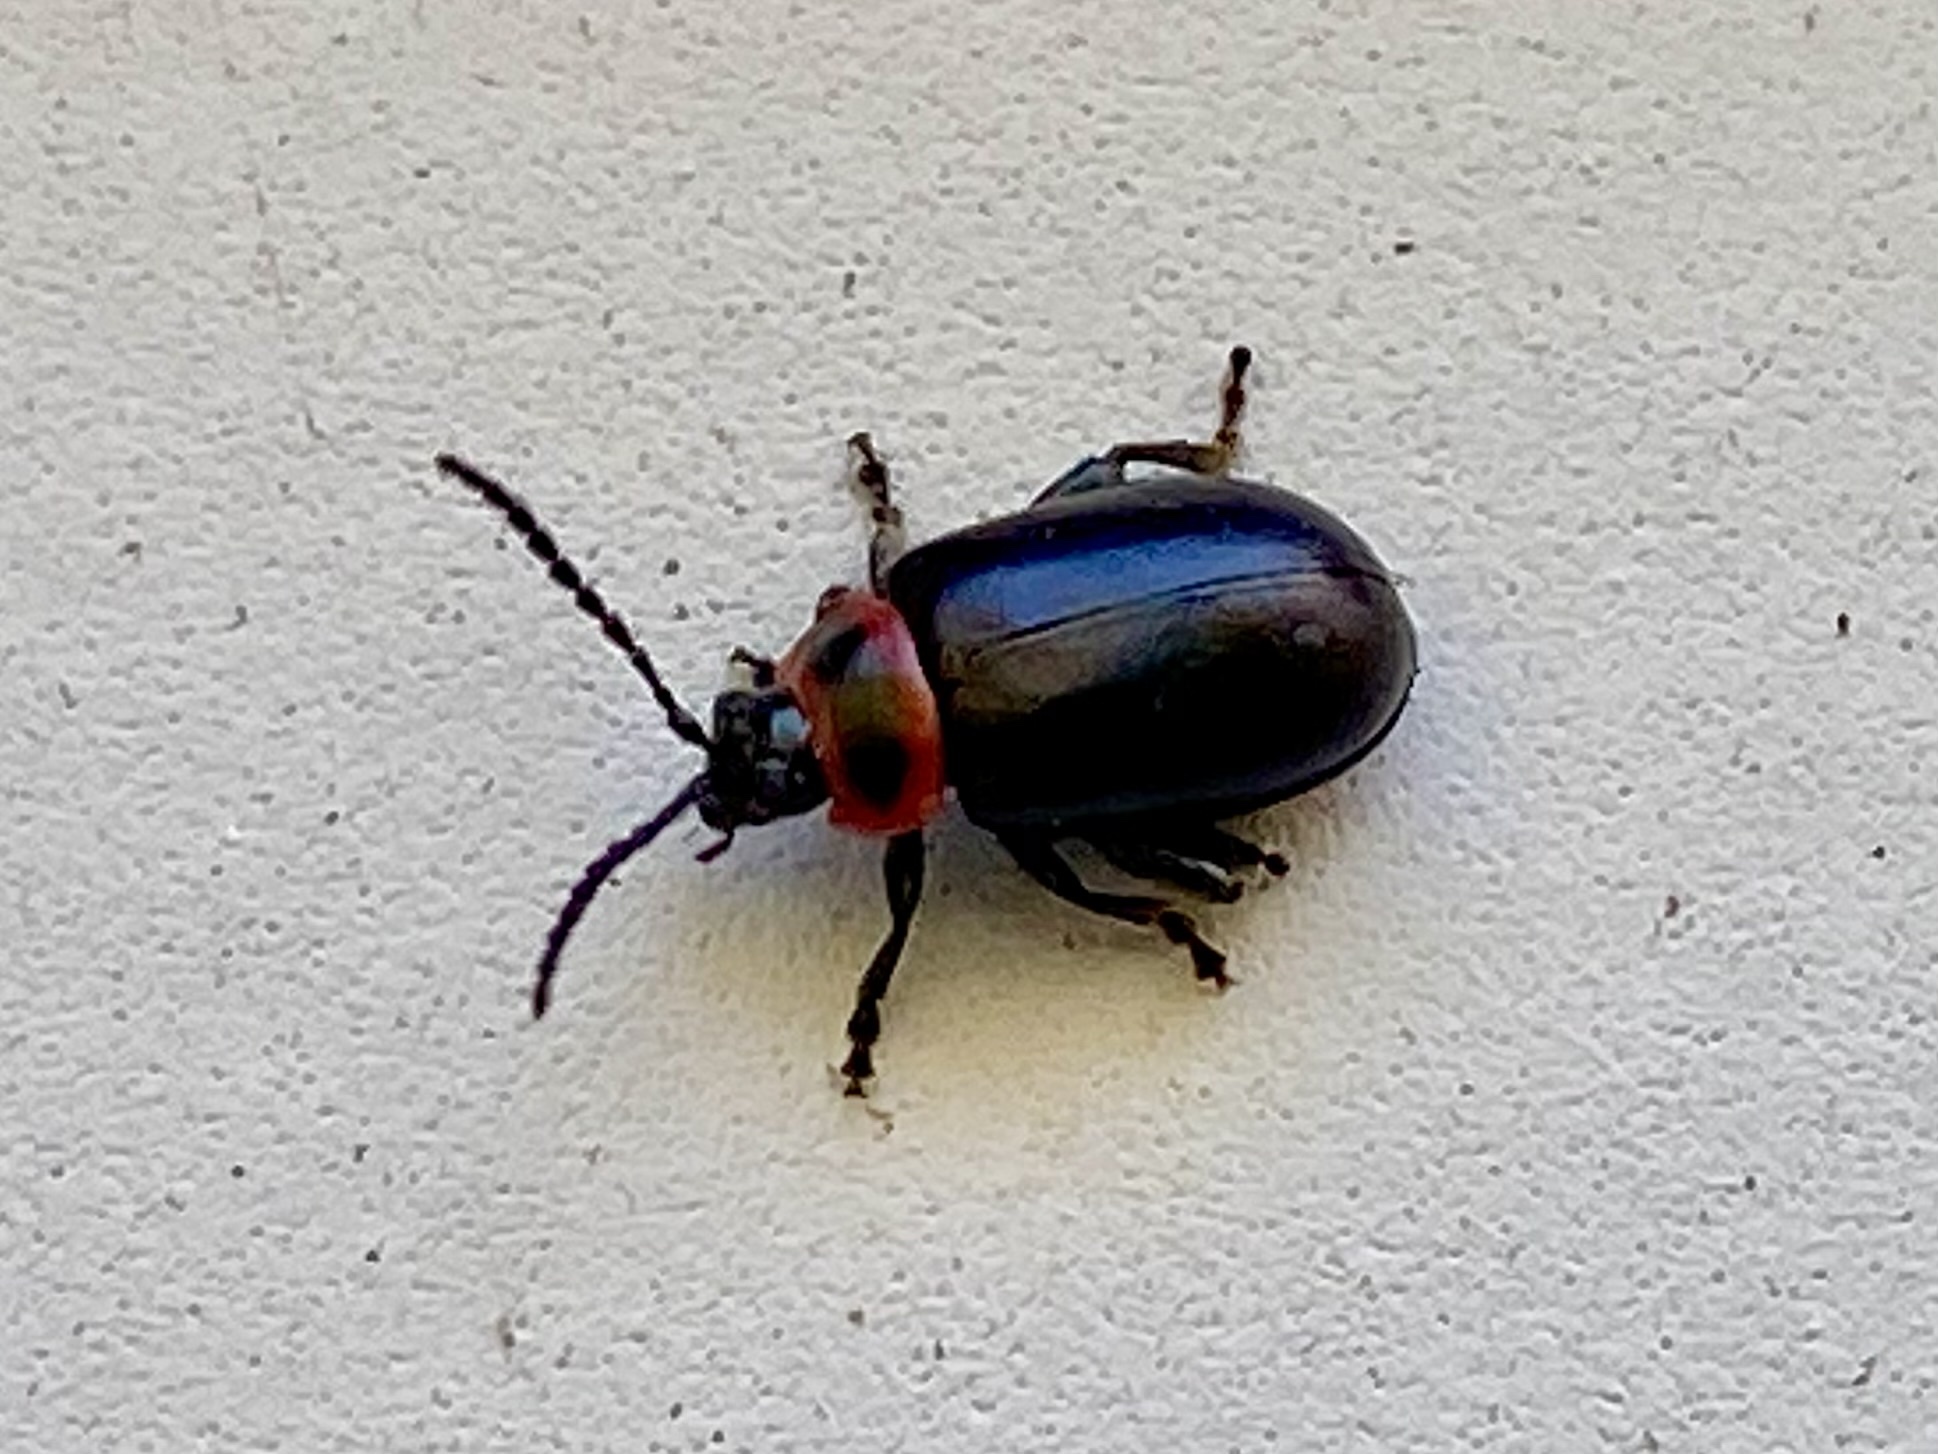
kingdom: Animalia
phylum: Arthropoda
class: Insecta
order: Coleoptera
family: Chrysomelidae
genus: Kuschelina
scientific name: Kuschelina vians
